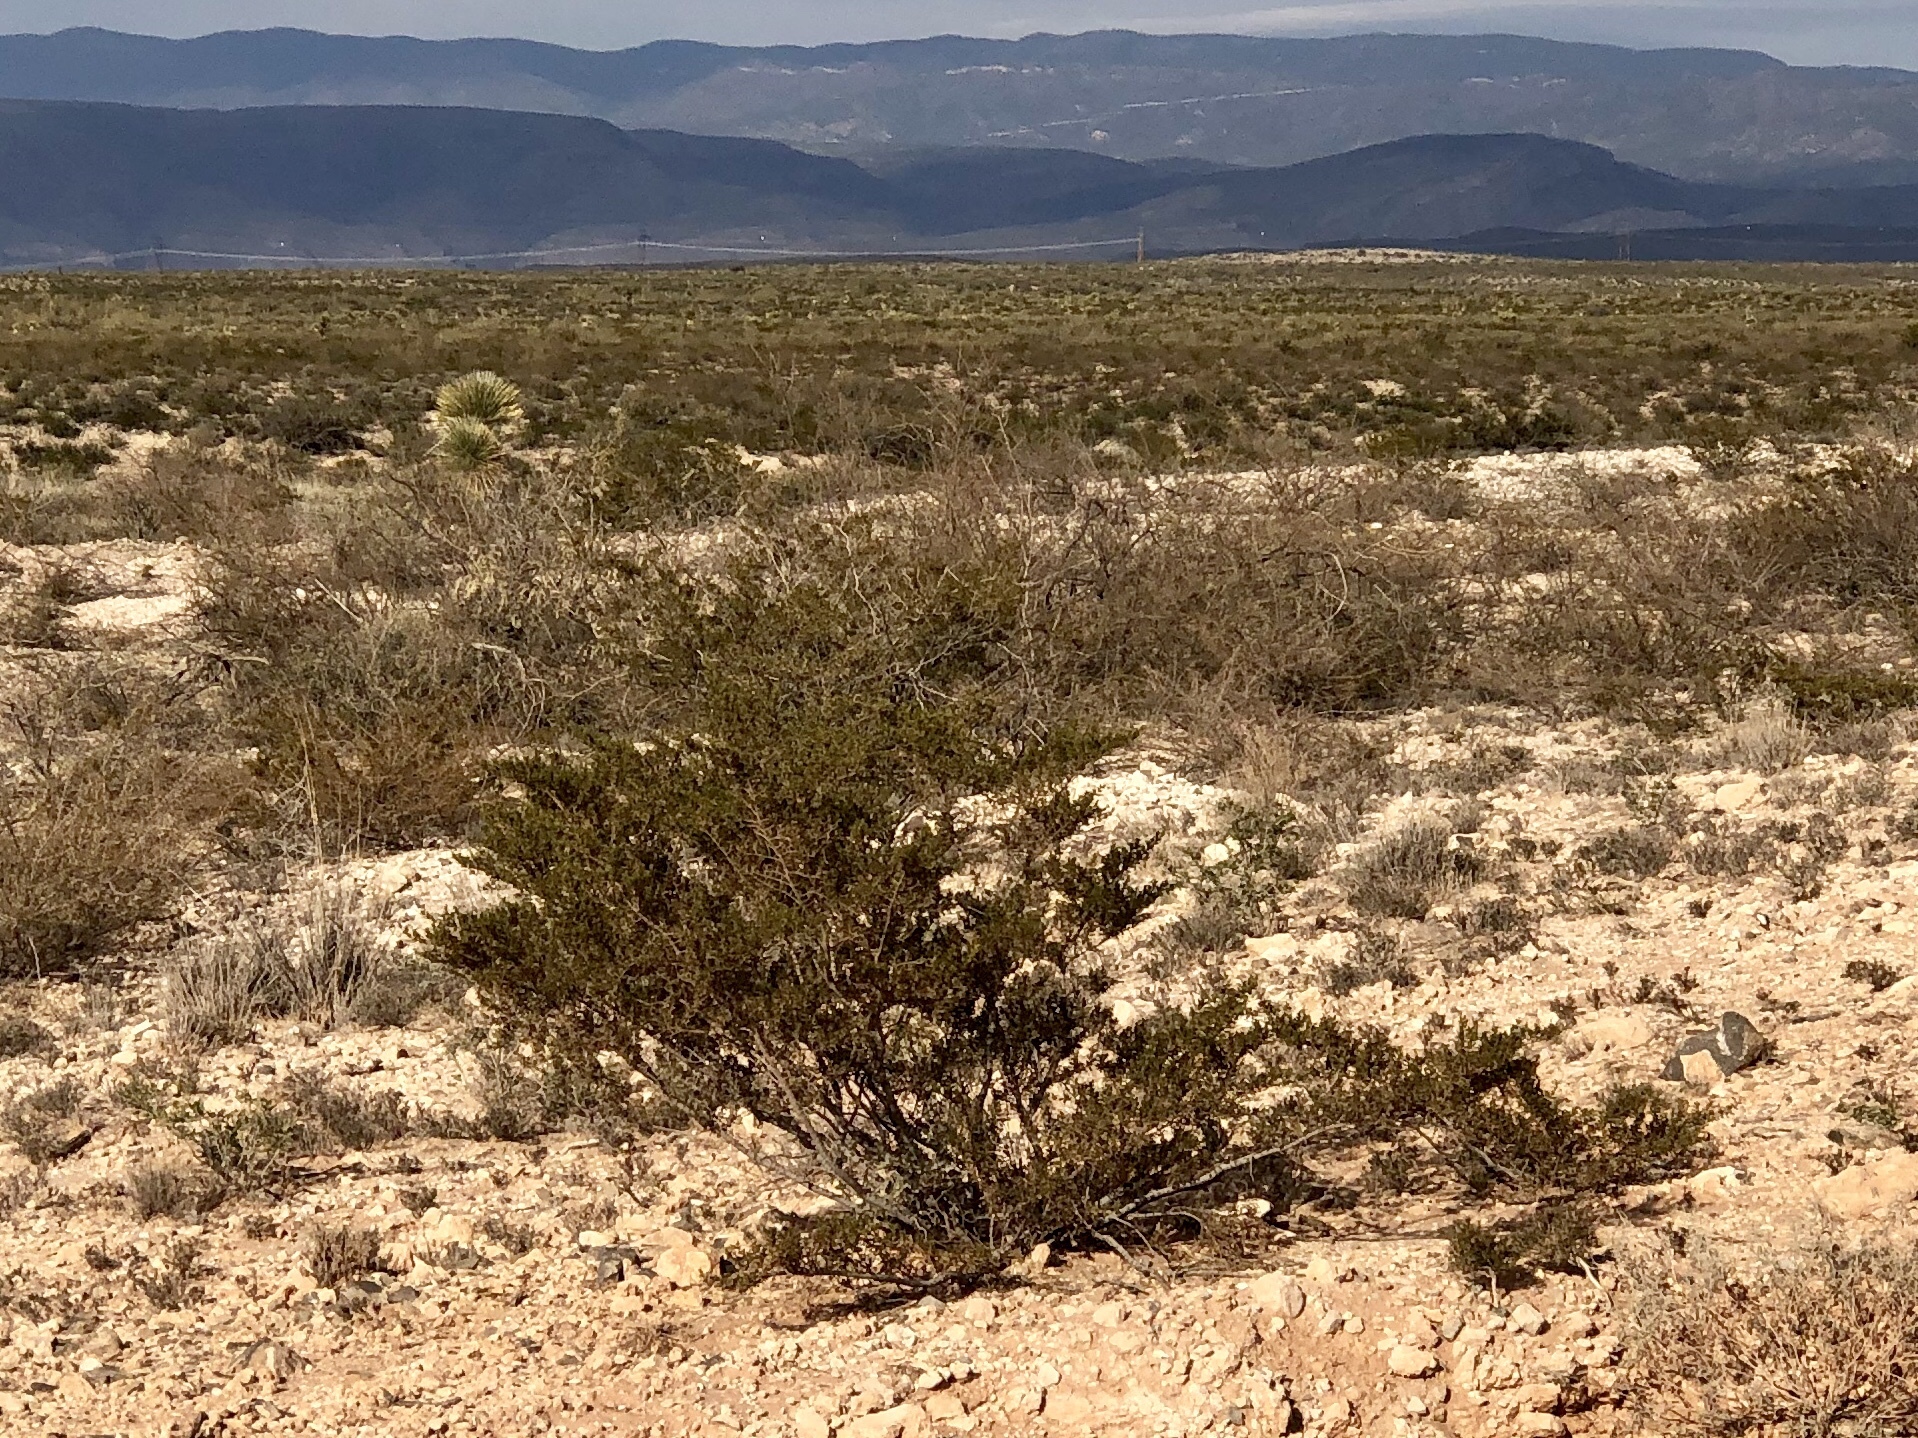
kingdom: Plantae
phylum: Tracheophyta
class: Magnoliopsida
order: Zygophyllales
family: Zygophyllaceae
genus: Larrea
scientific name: Larrea tridentata
